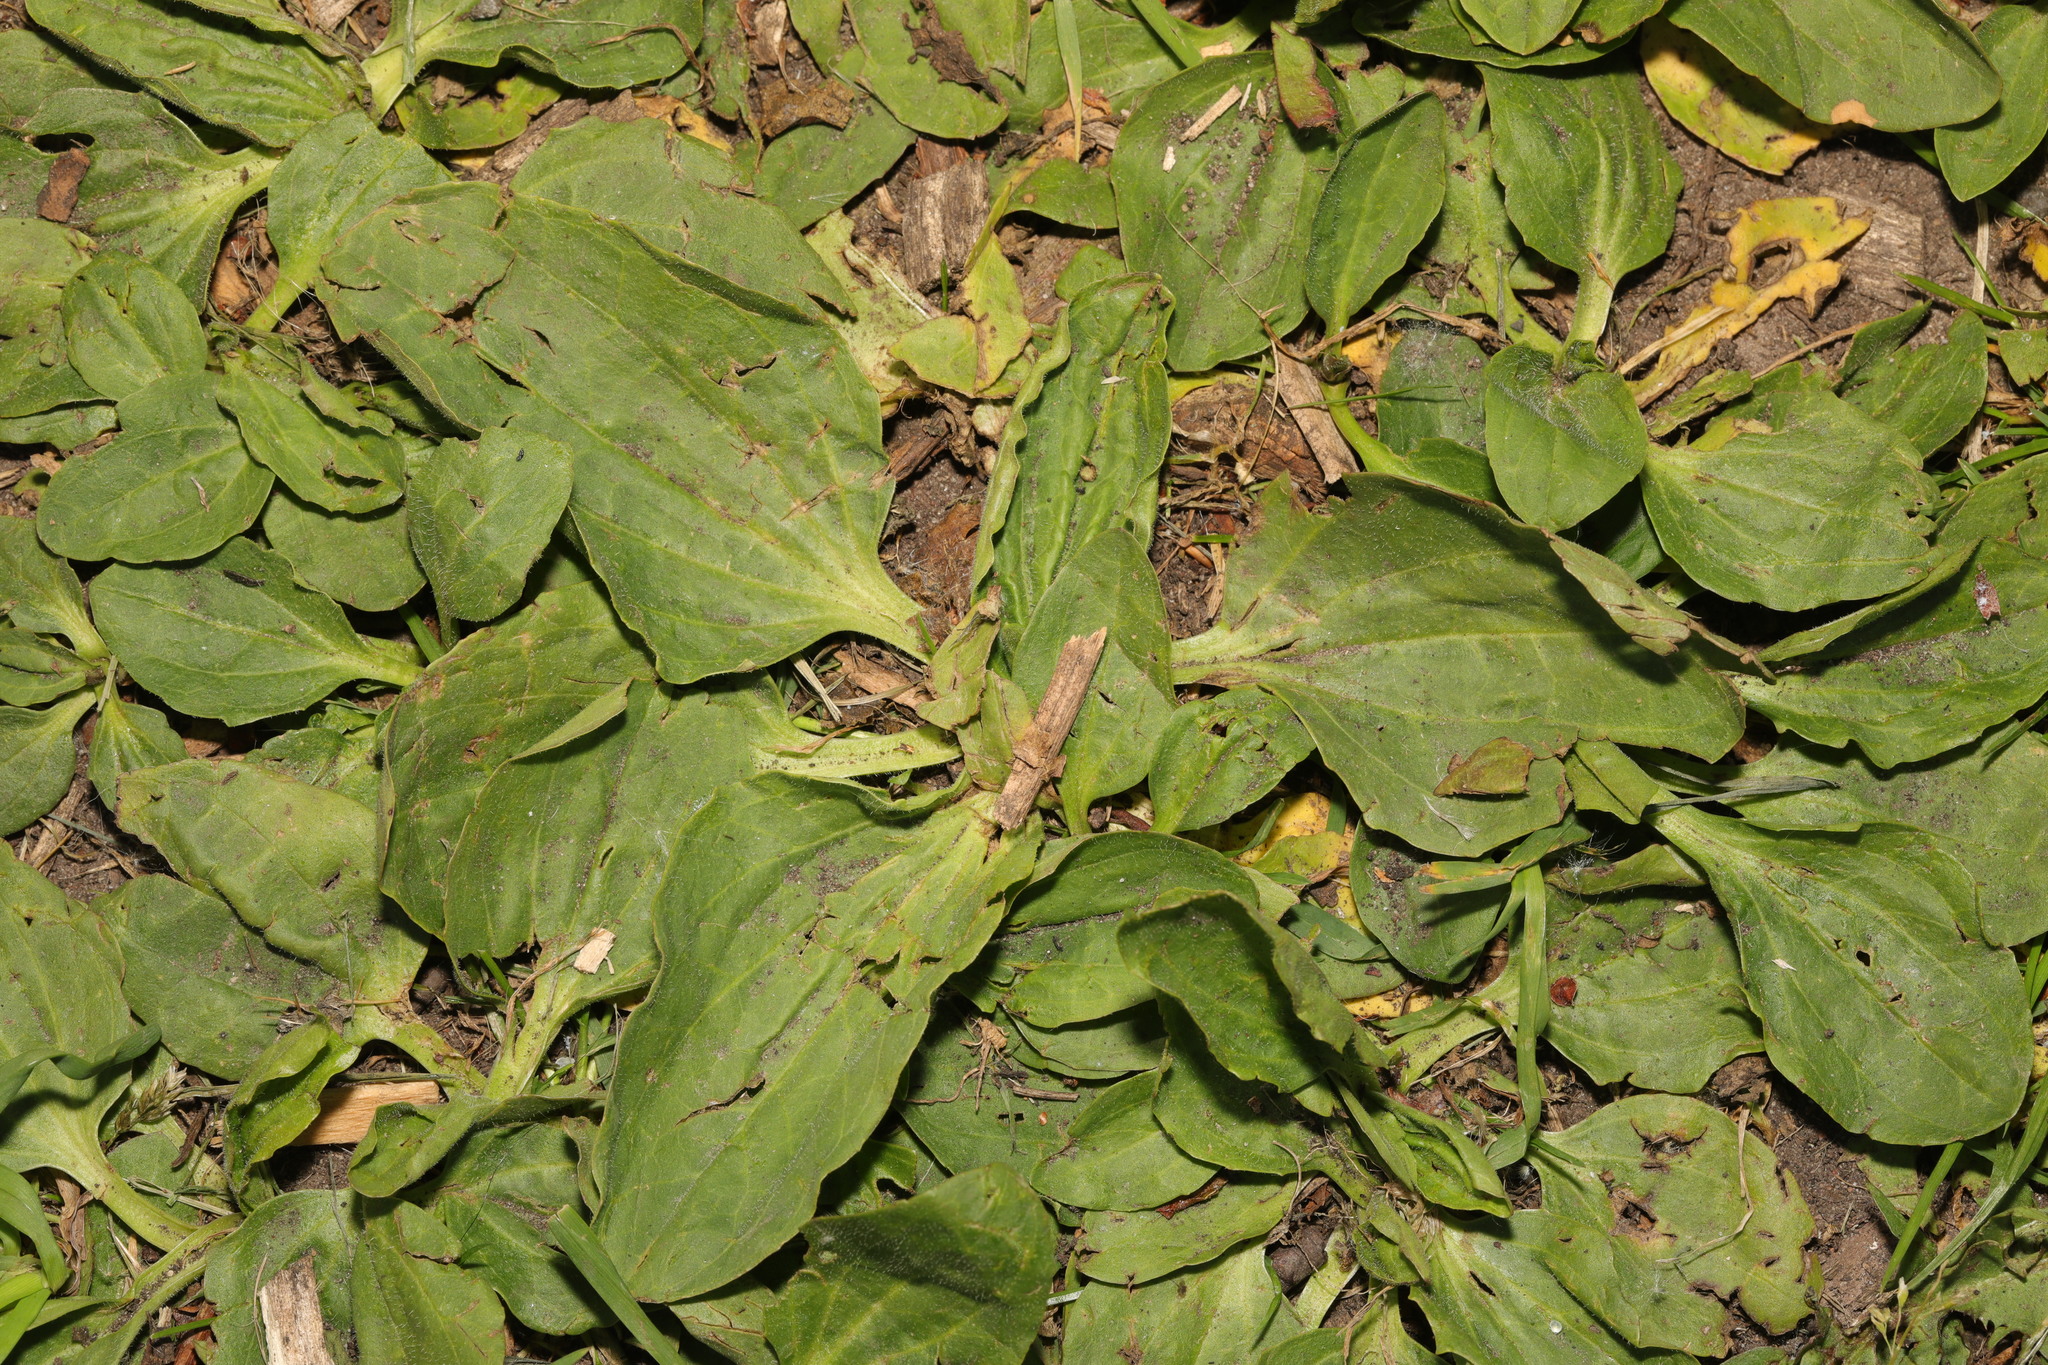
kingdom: Plantae
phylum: Tracheophyta
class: Magnoliopsida
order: Lamiales
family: Plantaginaceae
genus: Plantago
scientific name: Plantago major
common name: Common plantain
